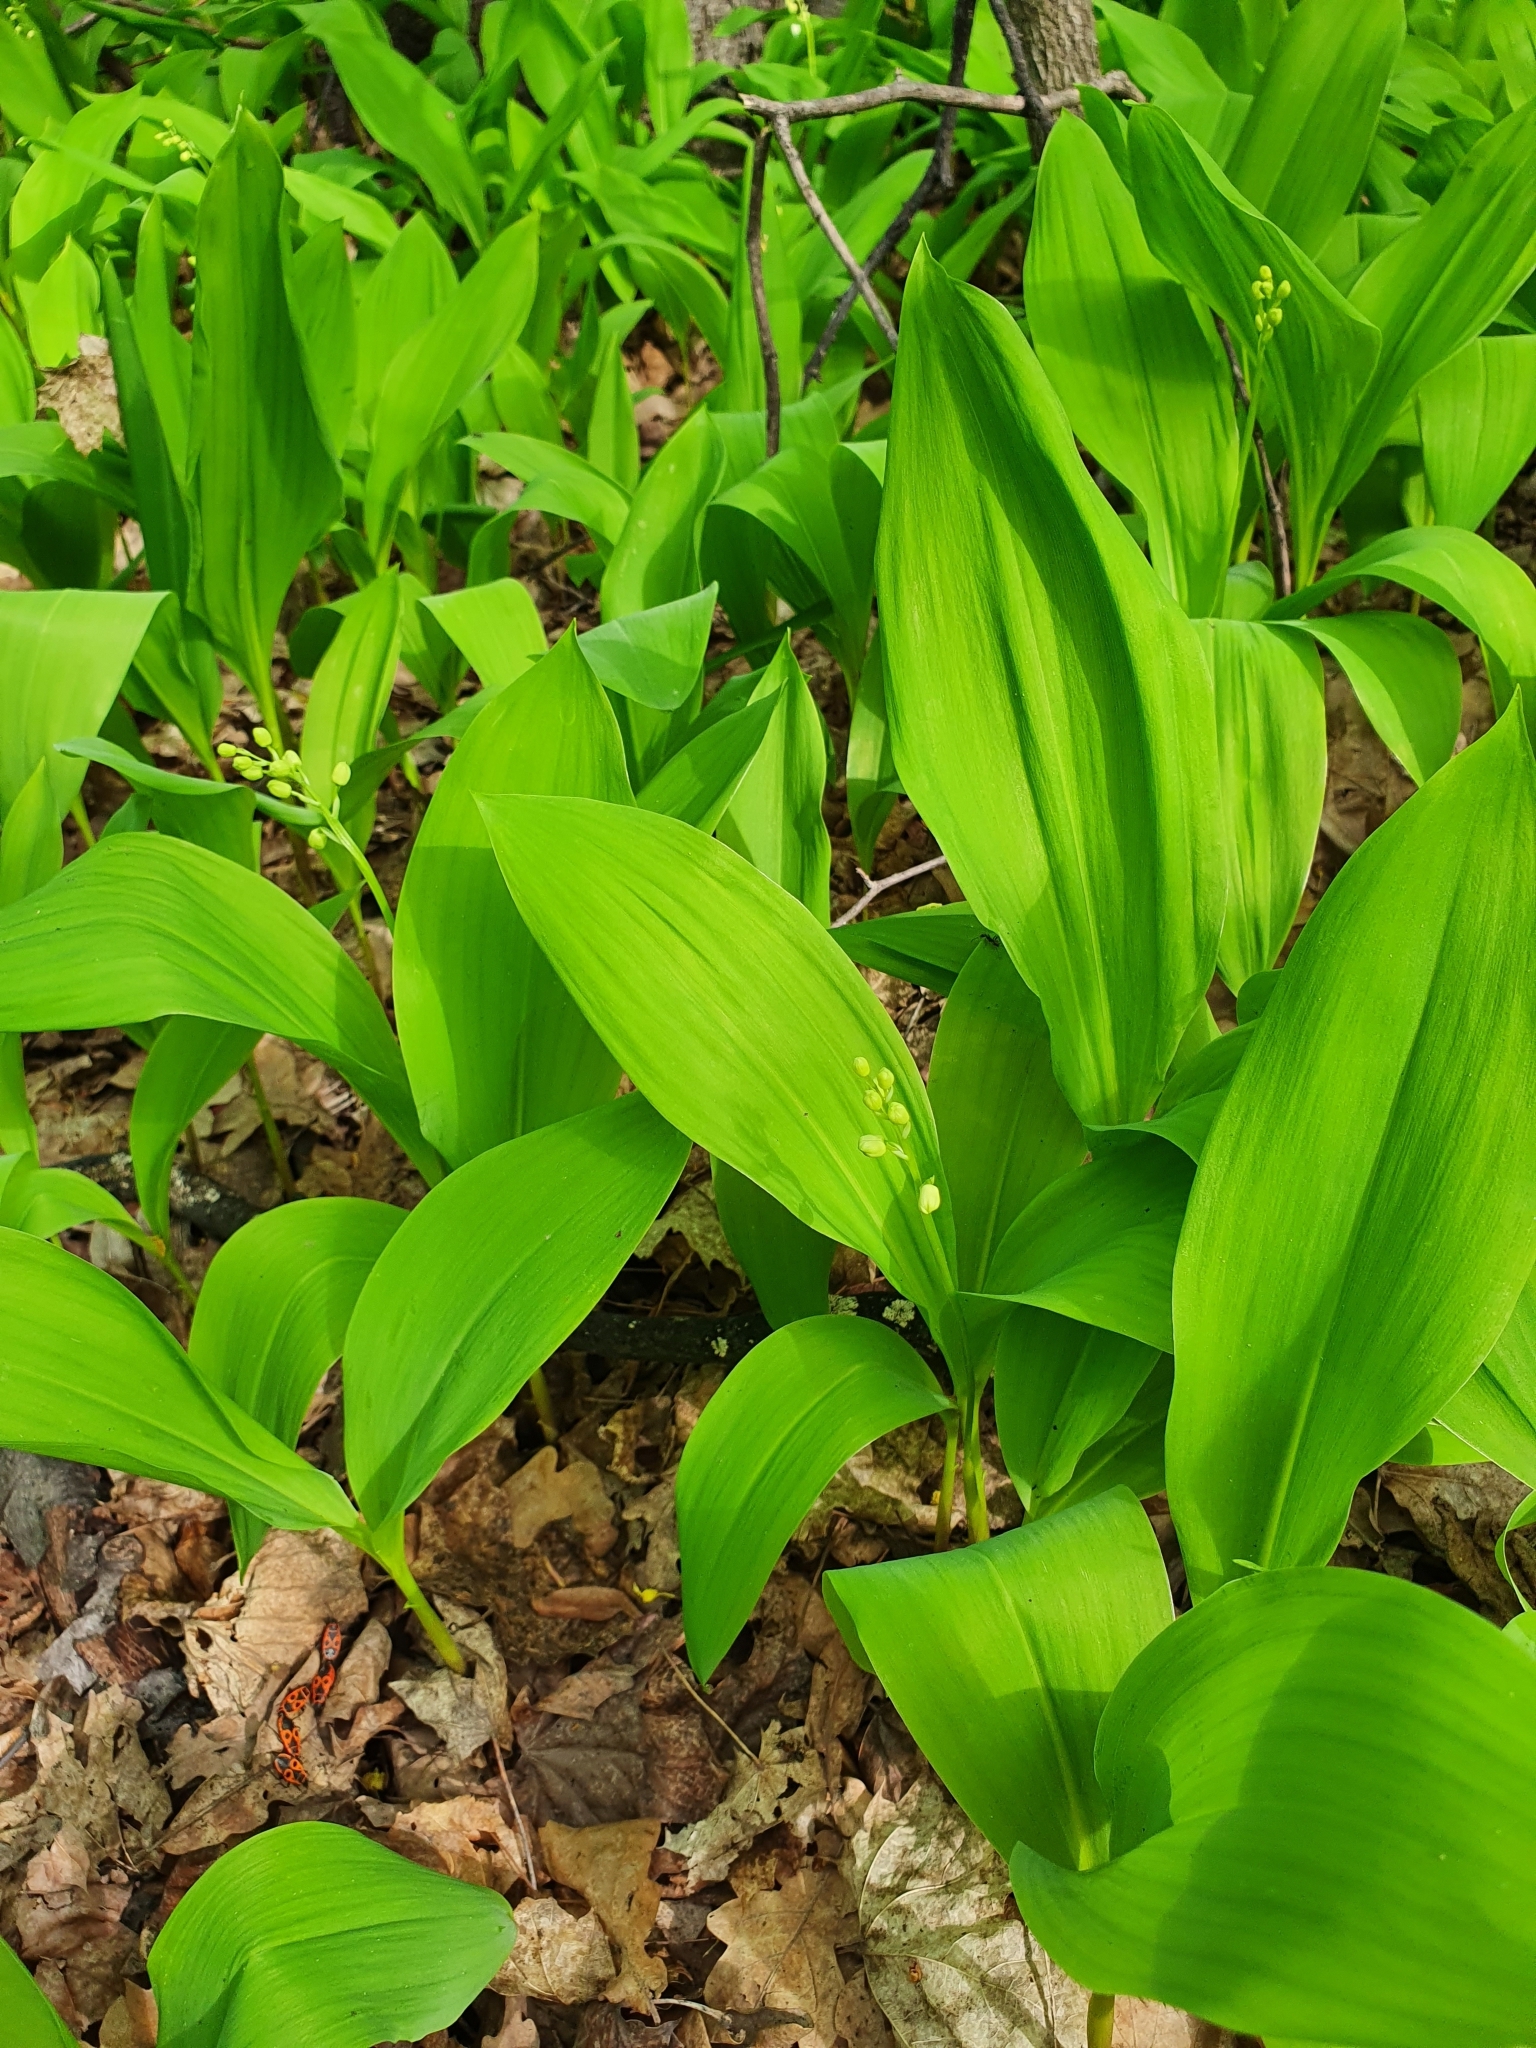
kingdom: Plantae
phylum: Tracheophyta
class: Liliopsida
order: Asparagales
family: Asparagaceae
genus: Convallaria
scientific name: Convallaria majalis
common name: Lily-of-the-valley
